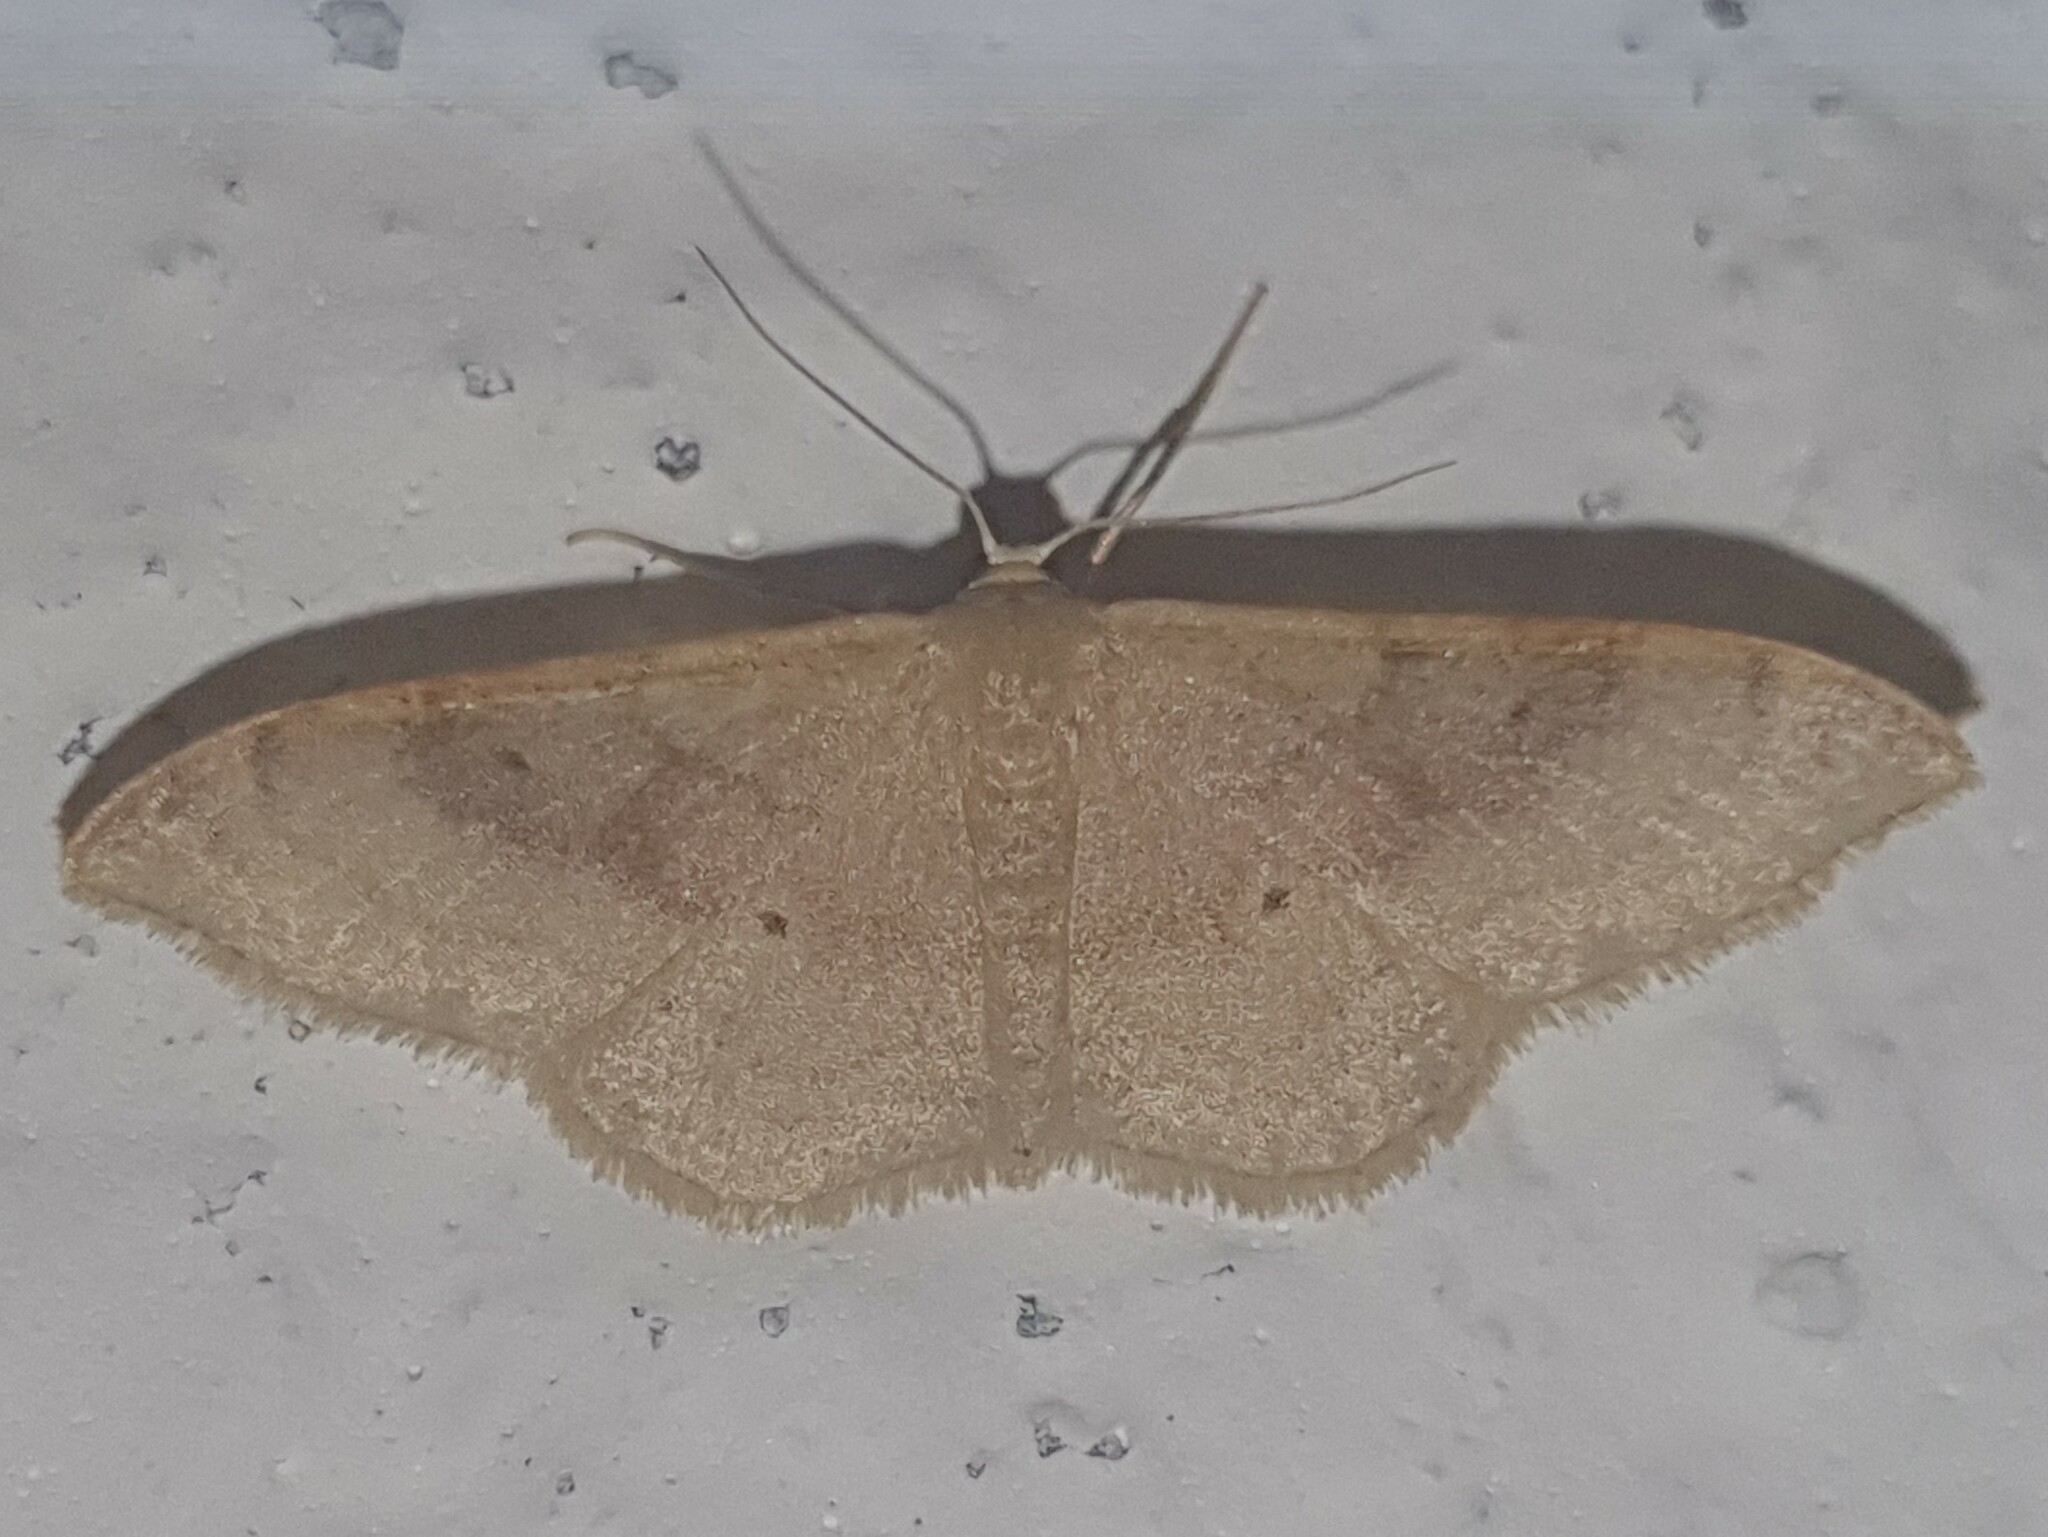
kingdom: Animalia
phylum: Arthropoda
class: Insecta
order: Lepidoptera
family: Geometridae
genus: Idaea
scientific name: Idaea degeneraria
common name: Portland ribbon wave
